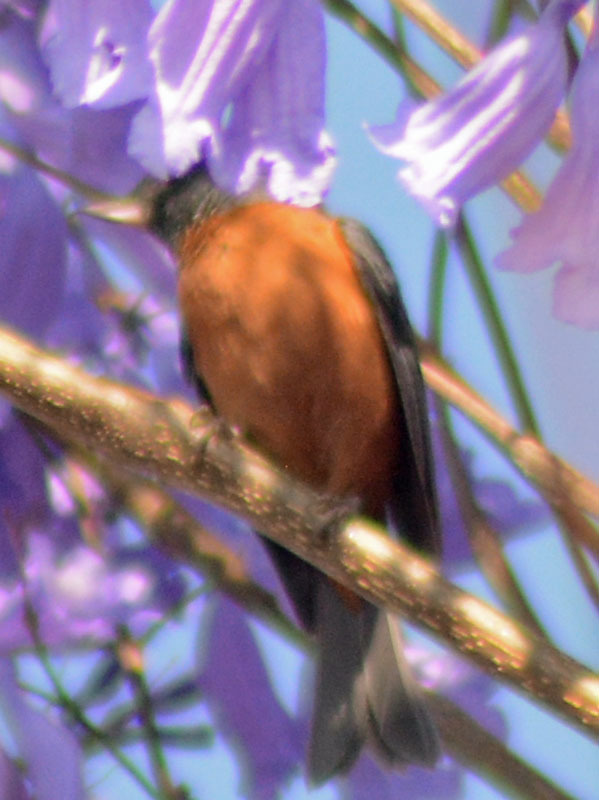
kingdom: Animalia
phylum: Chordata
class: Aves
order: Passeriformes
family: Thraupidae
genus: Diglossa
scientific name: Diglossa baritula
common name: Cinnamon-bellied flowerpiercer
